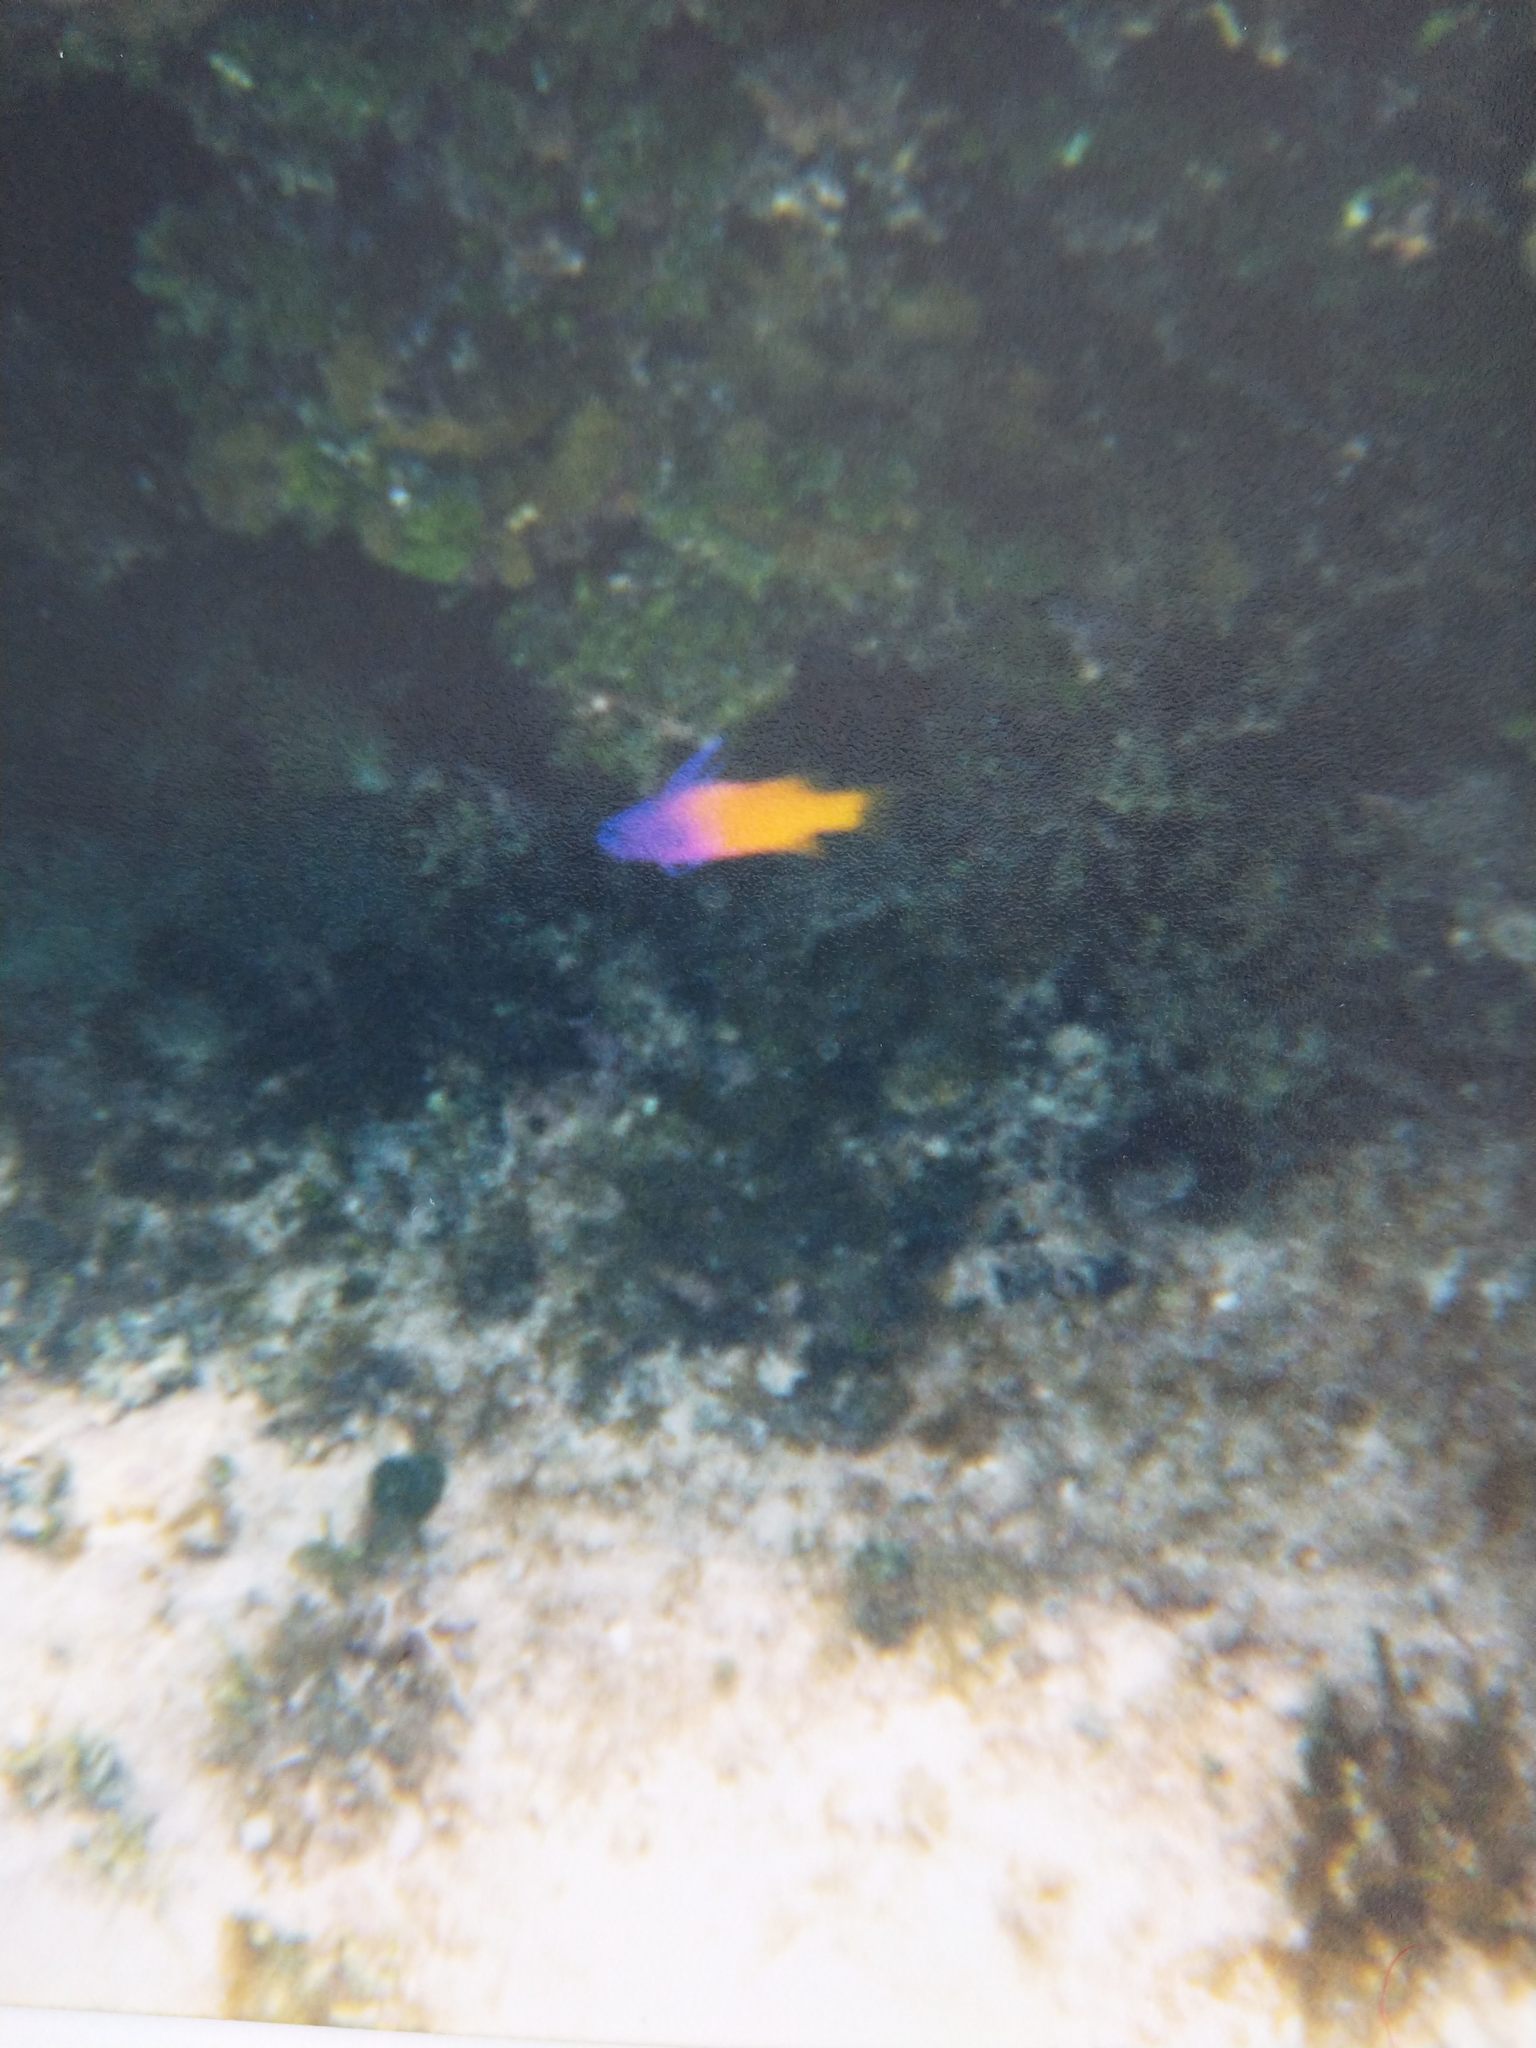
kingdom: Animalia
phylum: Chordata
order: Perciformes
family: Grammatidae
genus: Gramma
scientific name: Gramma loreto
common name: Fairy basslet
